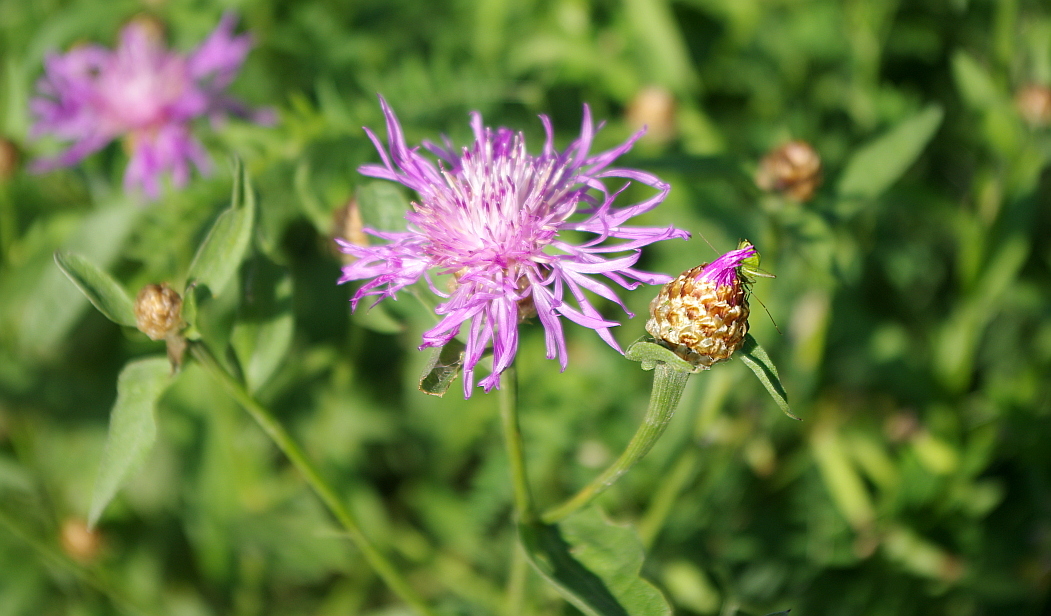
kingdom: Plantae
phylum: Tracheophyta
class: Magnoliopsida
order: Asterales
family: Asteraceae
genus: Centaurea
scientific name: Centaurea jacea
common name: Brown knapweed
